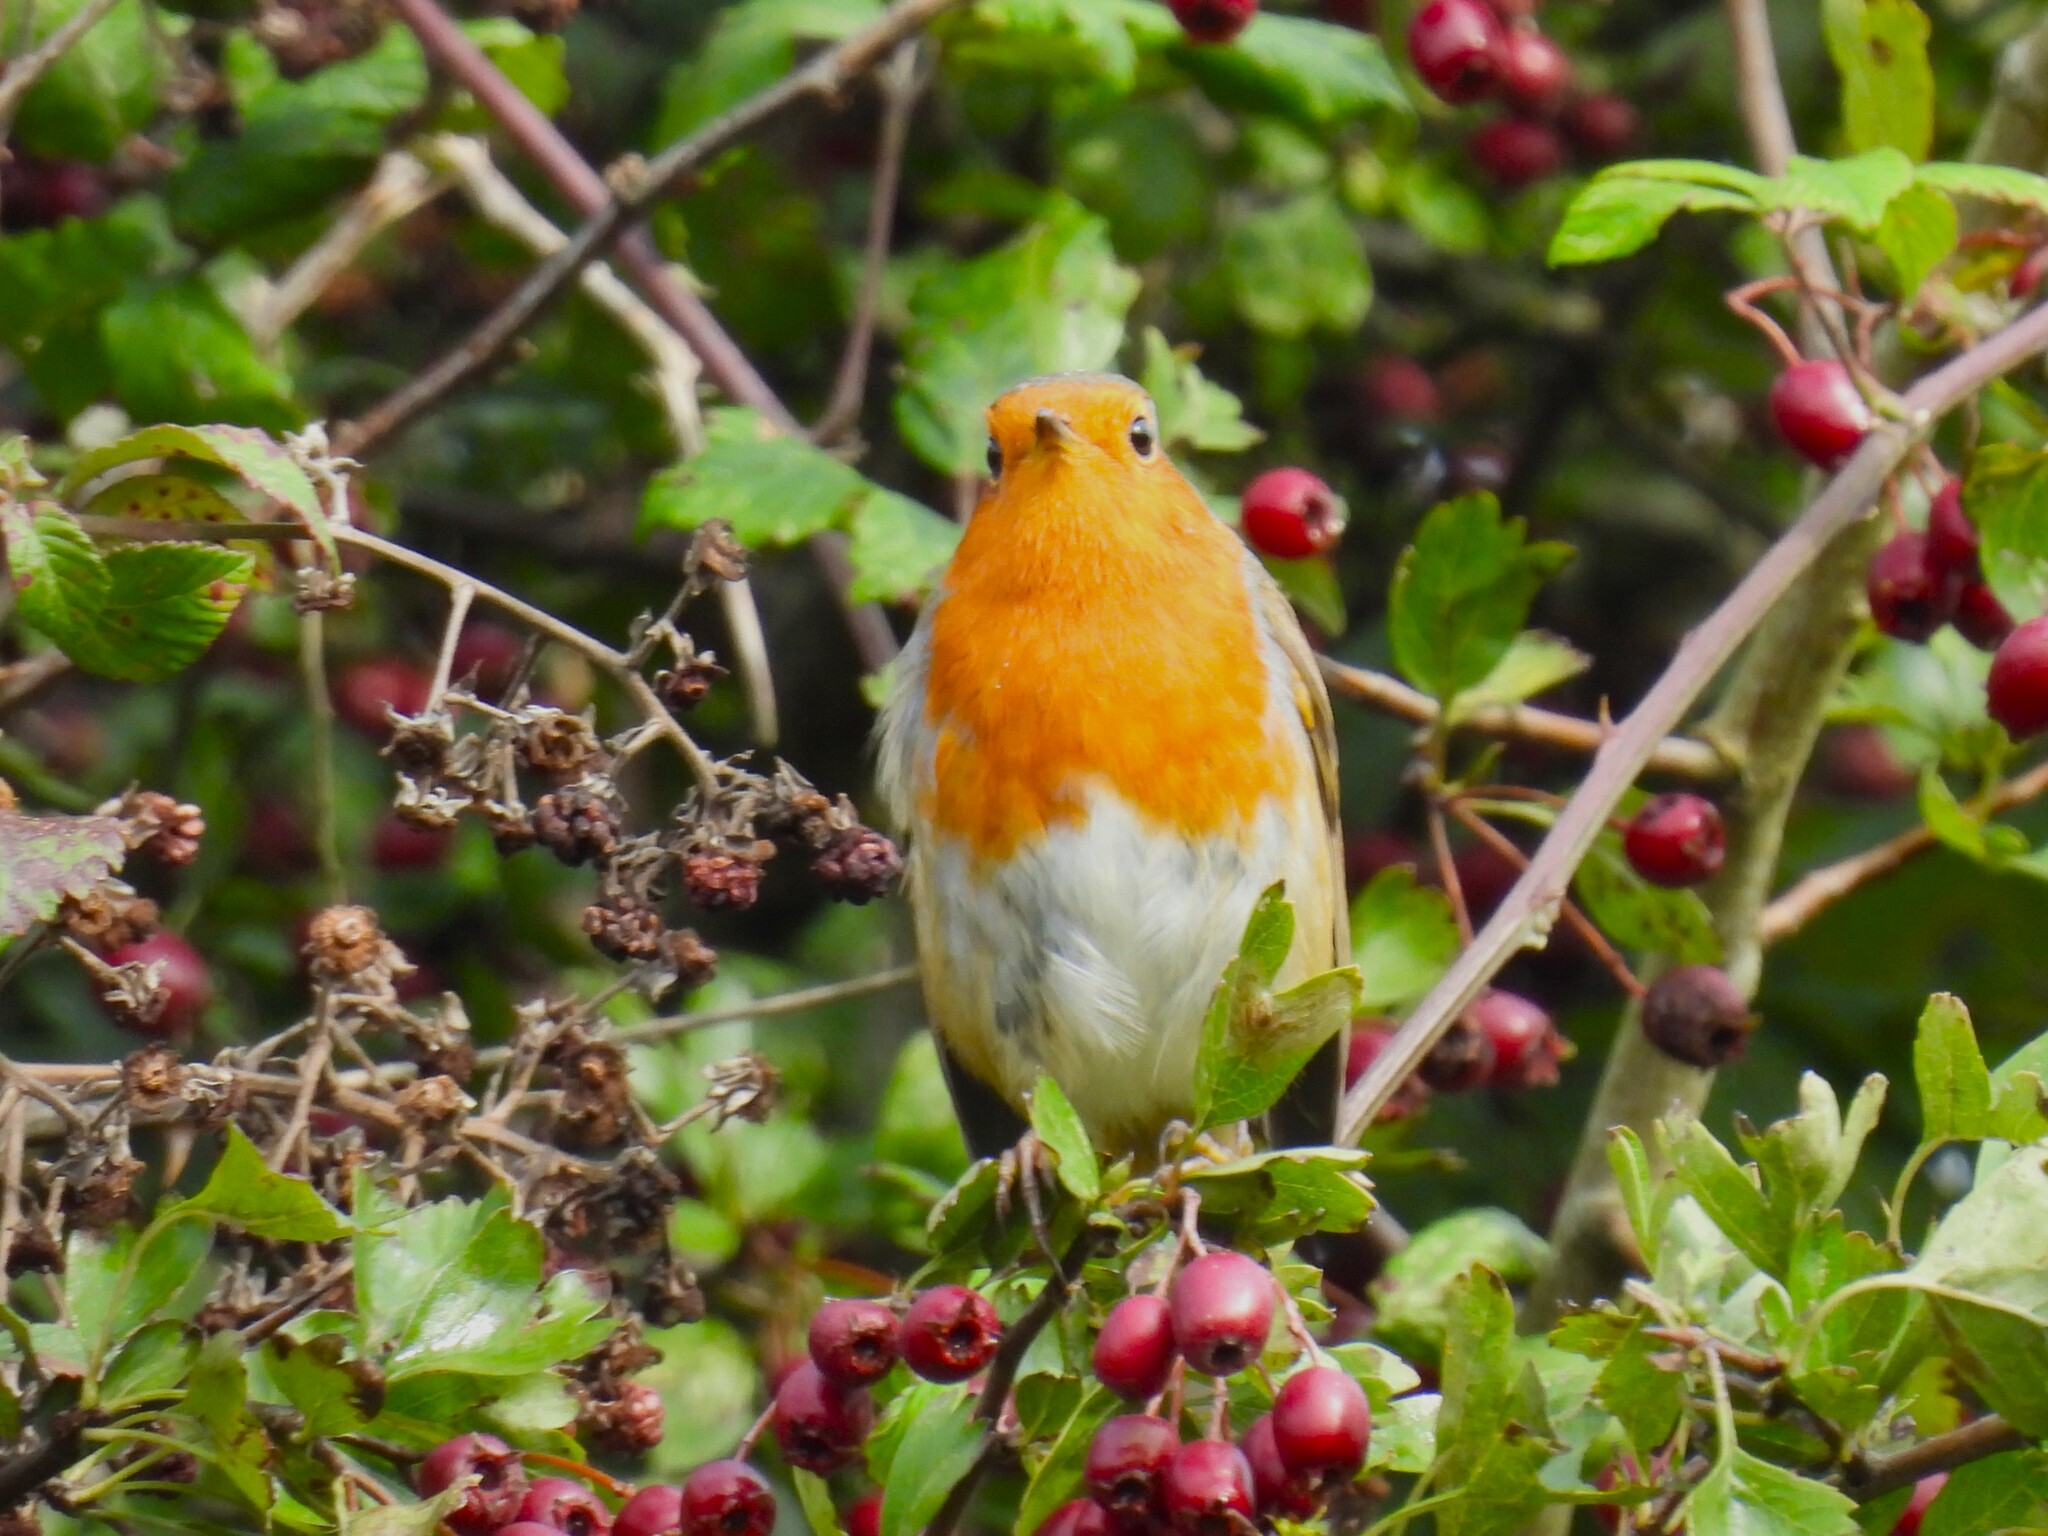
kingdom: Animalia
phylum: Chordata
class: Aves
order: Passeriformes
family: Muscicapidae
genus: Erithacus
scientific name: Erithacus rubecula
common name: European robin
